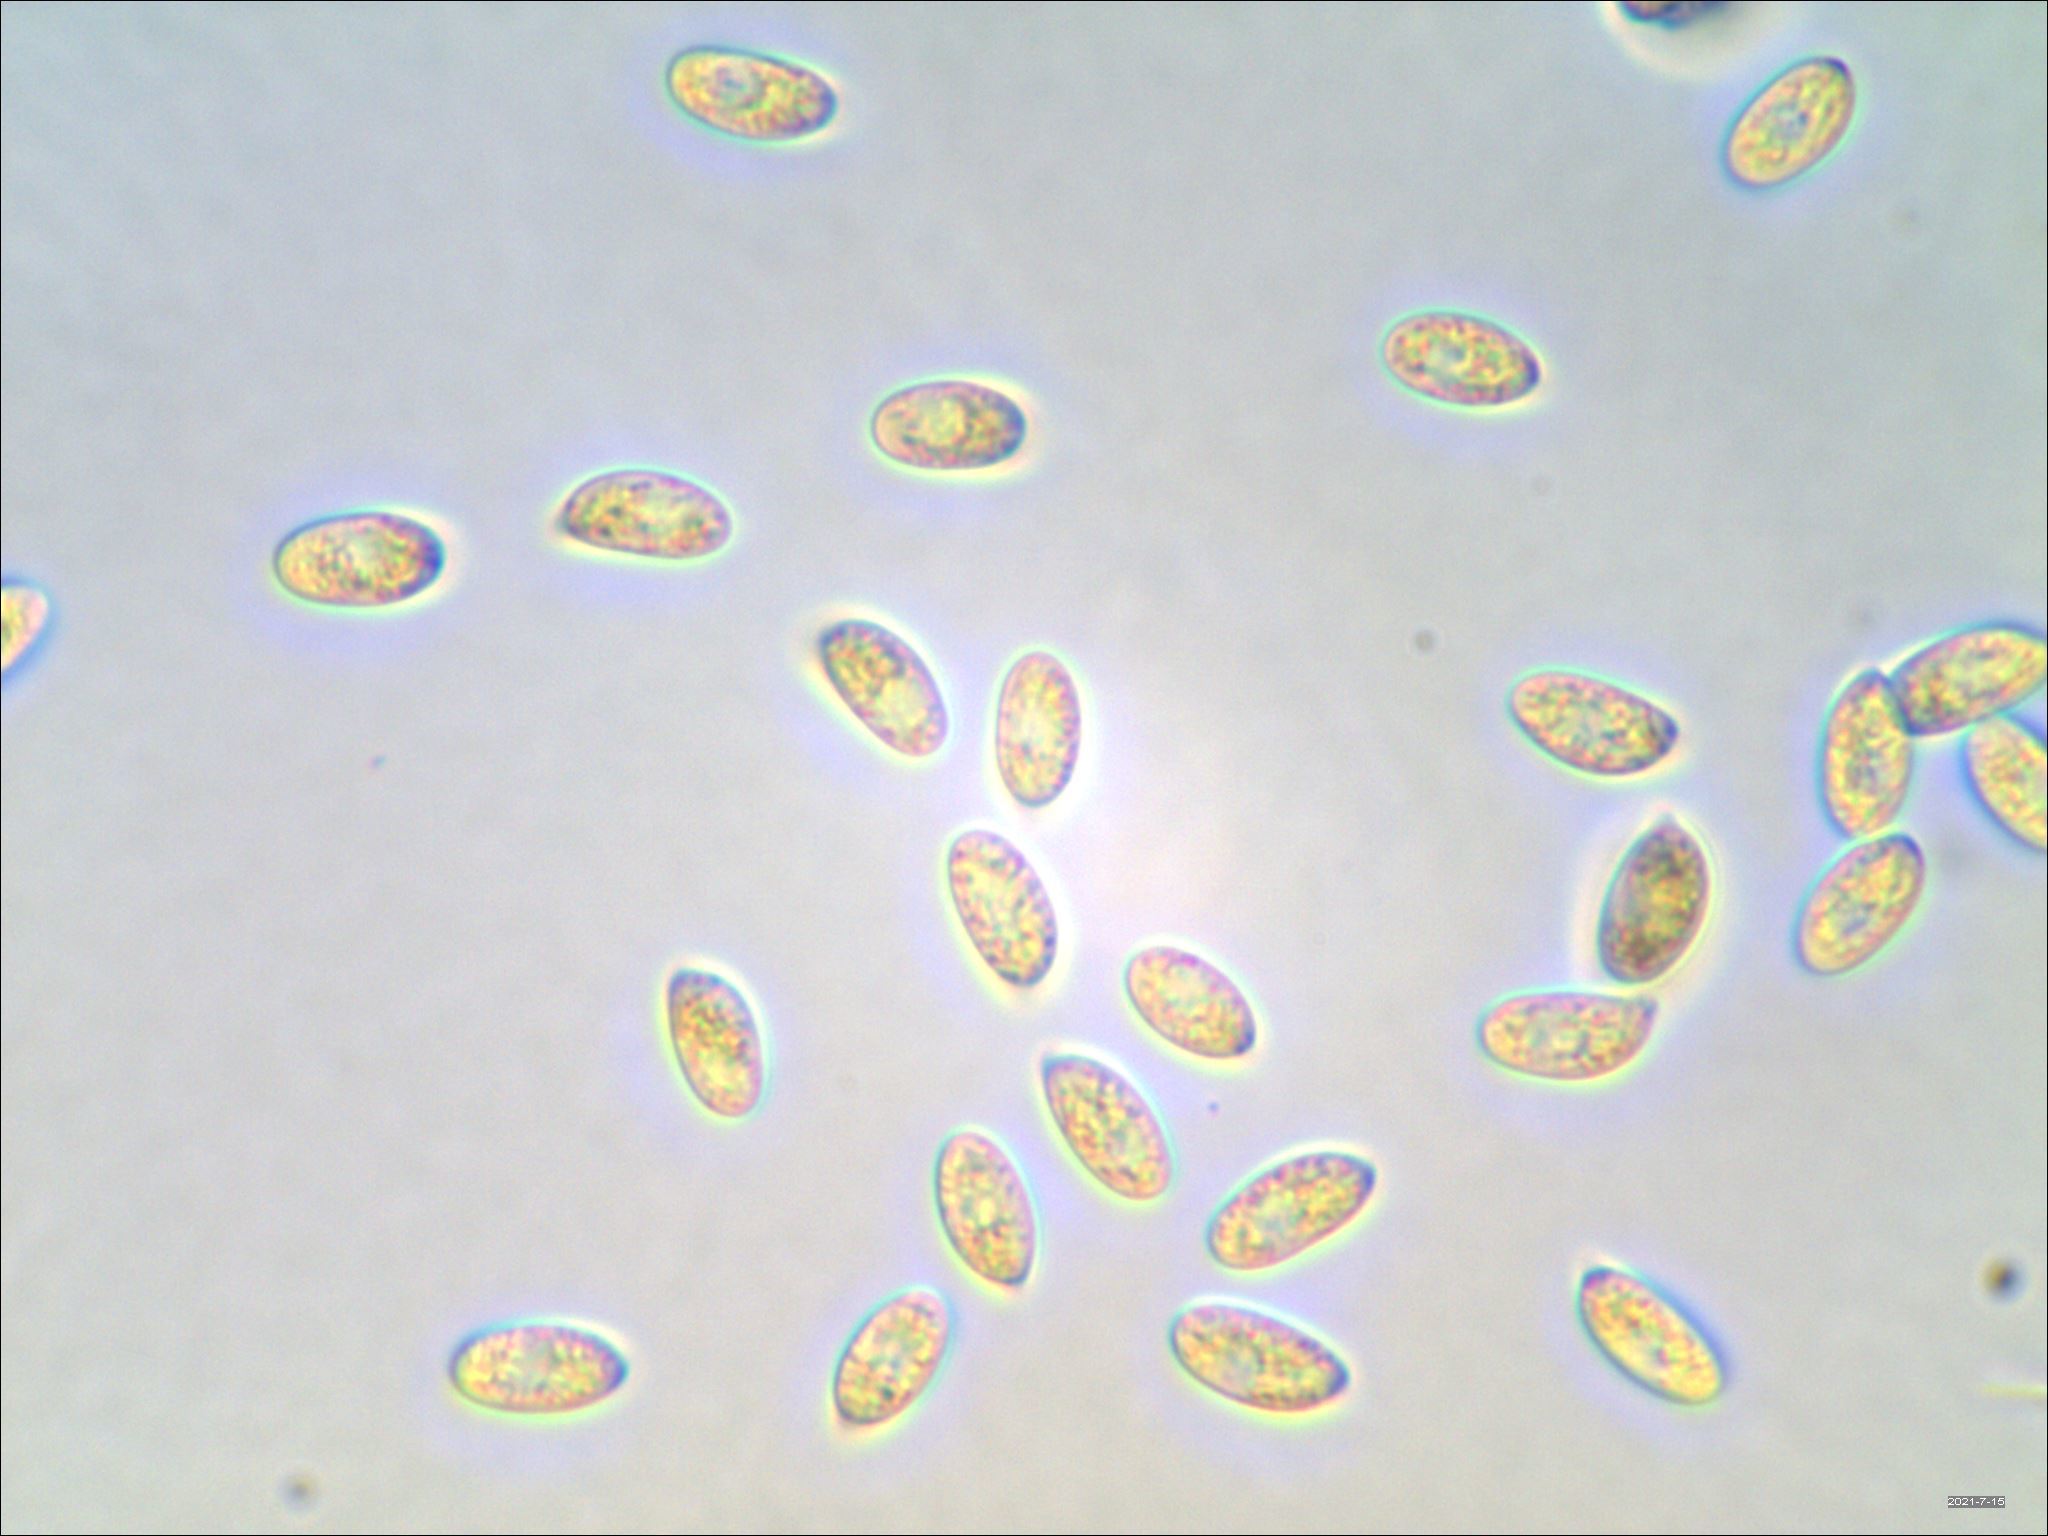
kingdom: Fungi
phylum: Basidiomycota
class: Agaricomycetes
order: Agaricales
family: Omphalotaceae
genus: Collybiopsis
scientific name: Collybiopsis dichroa
